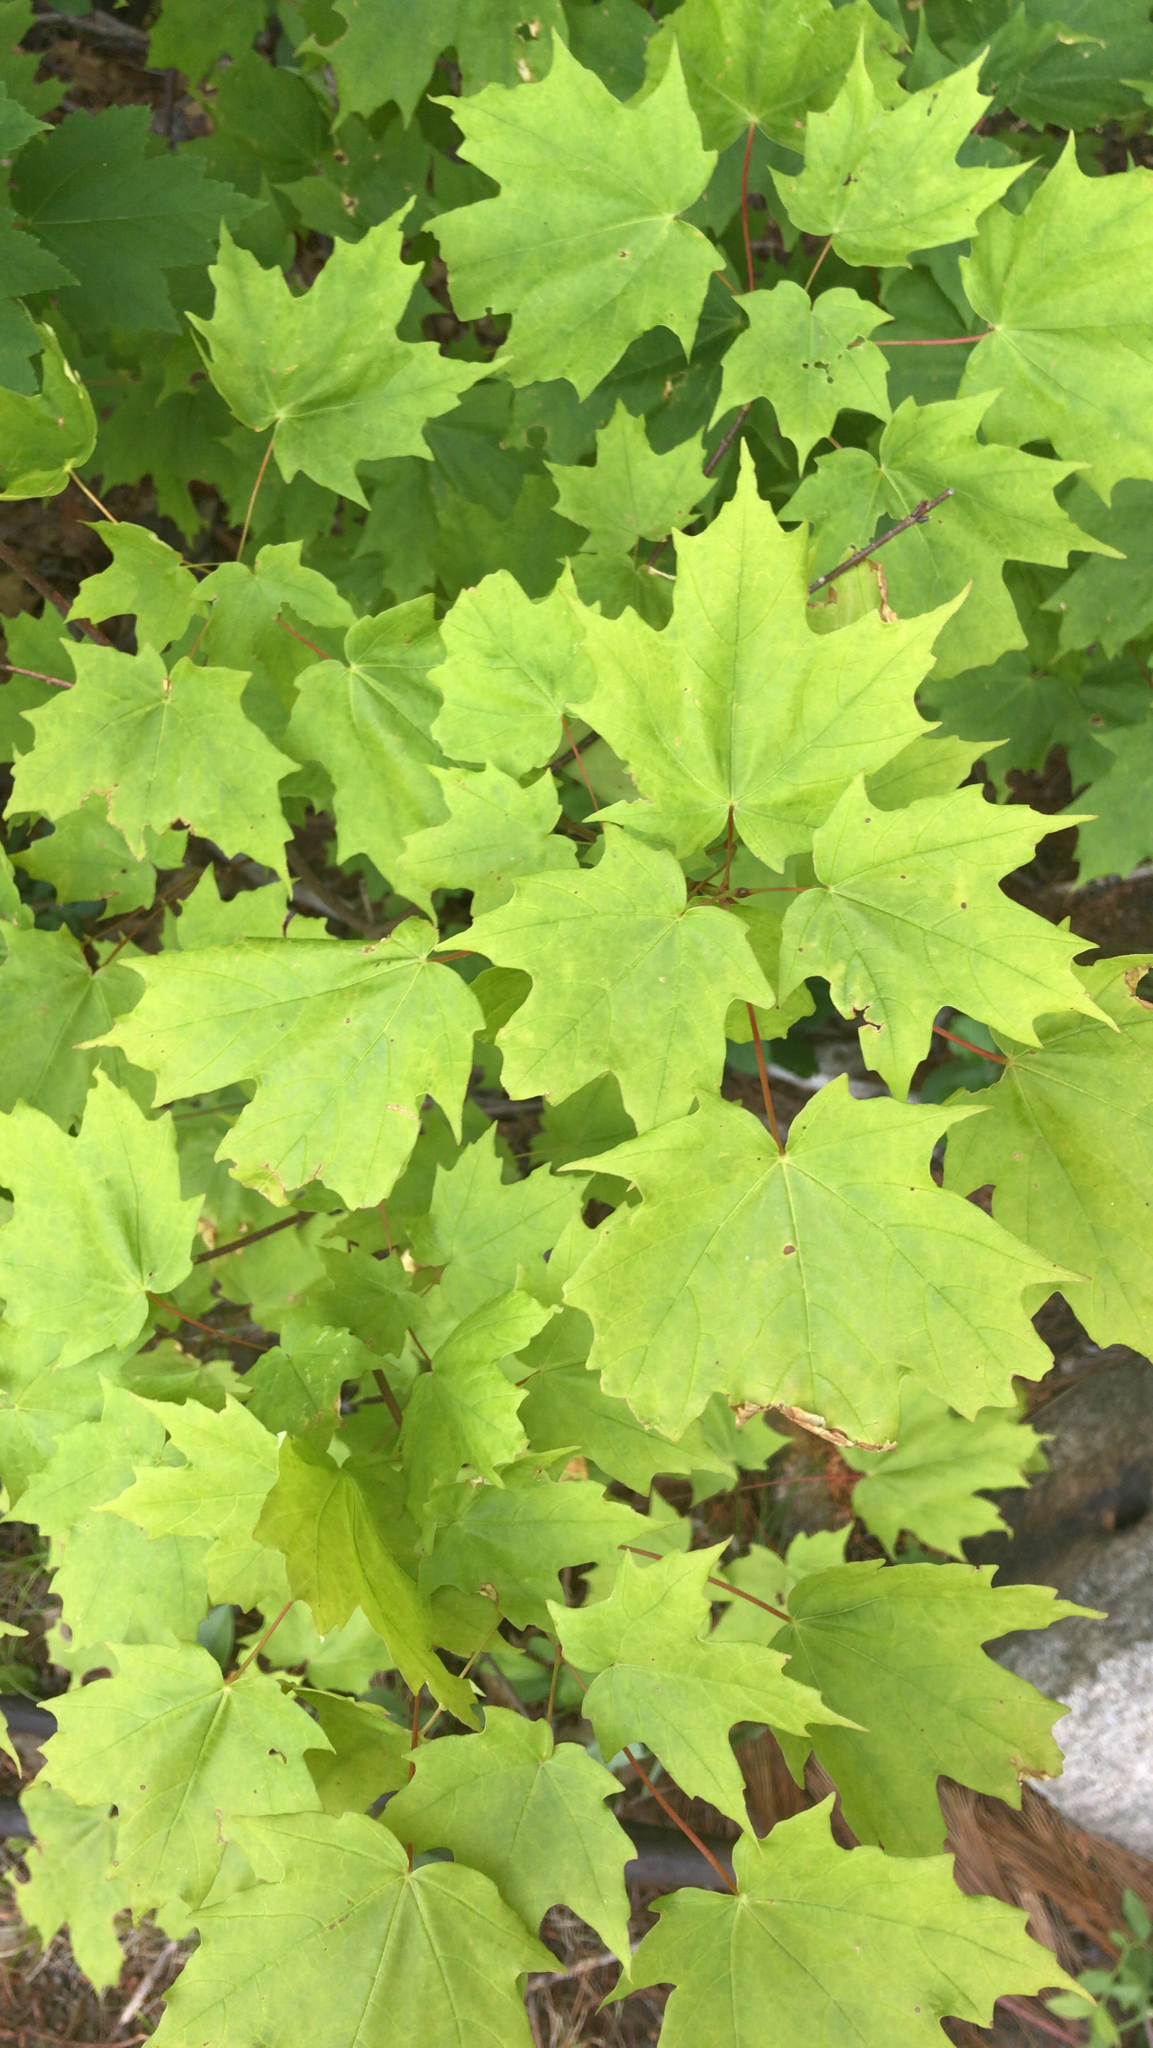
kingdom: Plantae
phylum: Tracheophyta
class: Magnoliopsida
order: Sapindales
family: Sapindaceae
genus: Acer
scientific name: Acer saccharum
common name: Sugar maple
